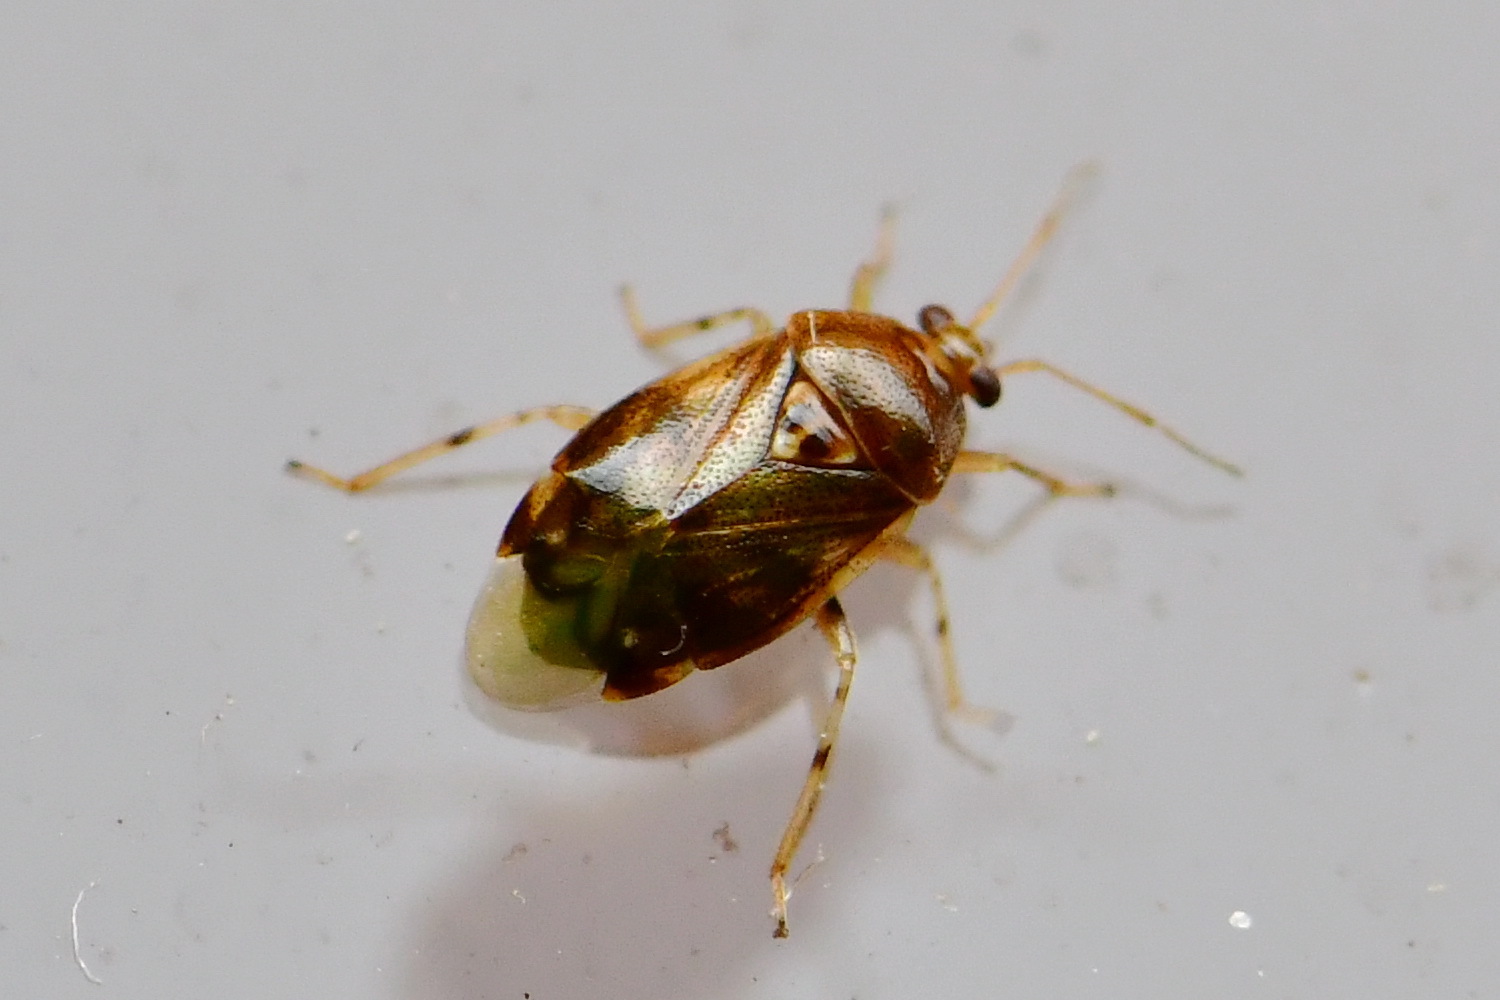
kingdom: Animalia
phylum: Arthropoda
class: Insecta
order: Hemiptera
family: Miridae
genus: Deraeocoris
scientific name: Deraeocoris lutescens
